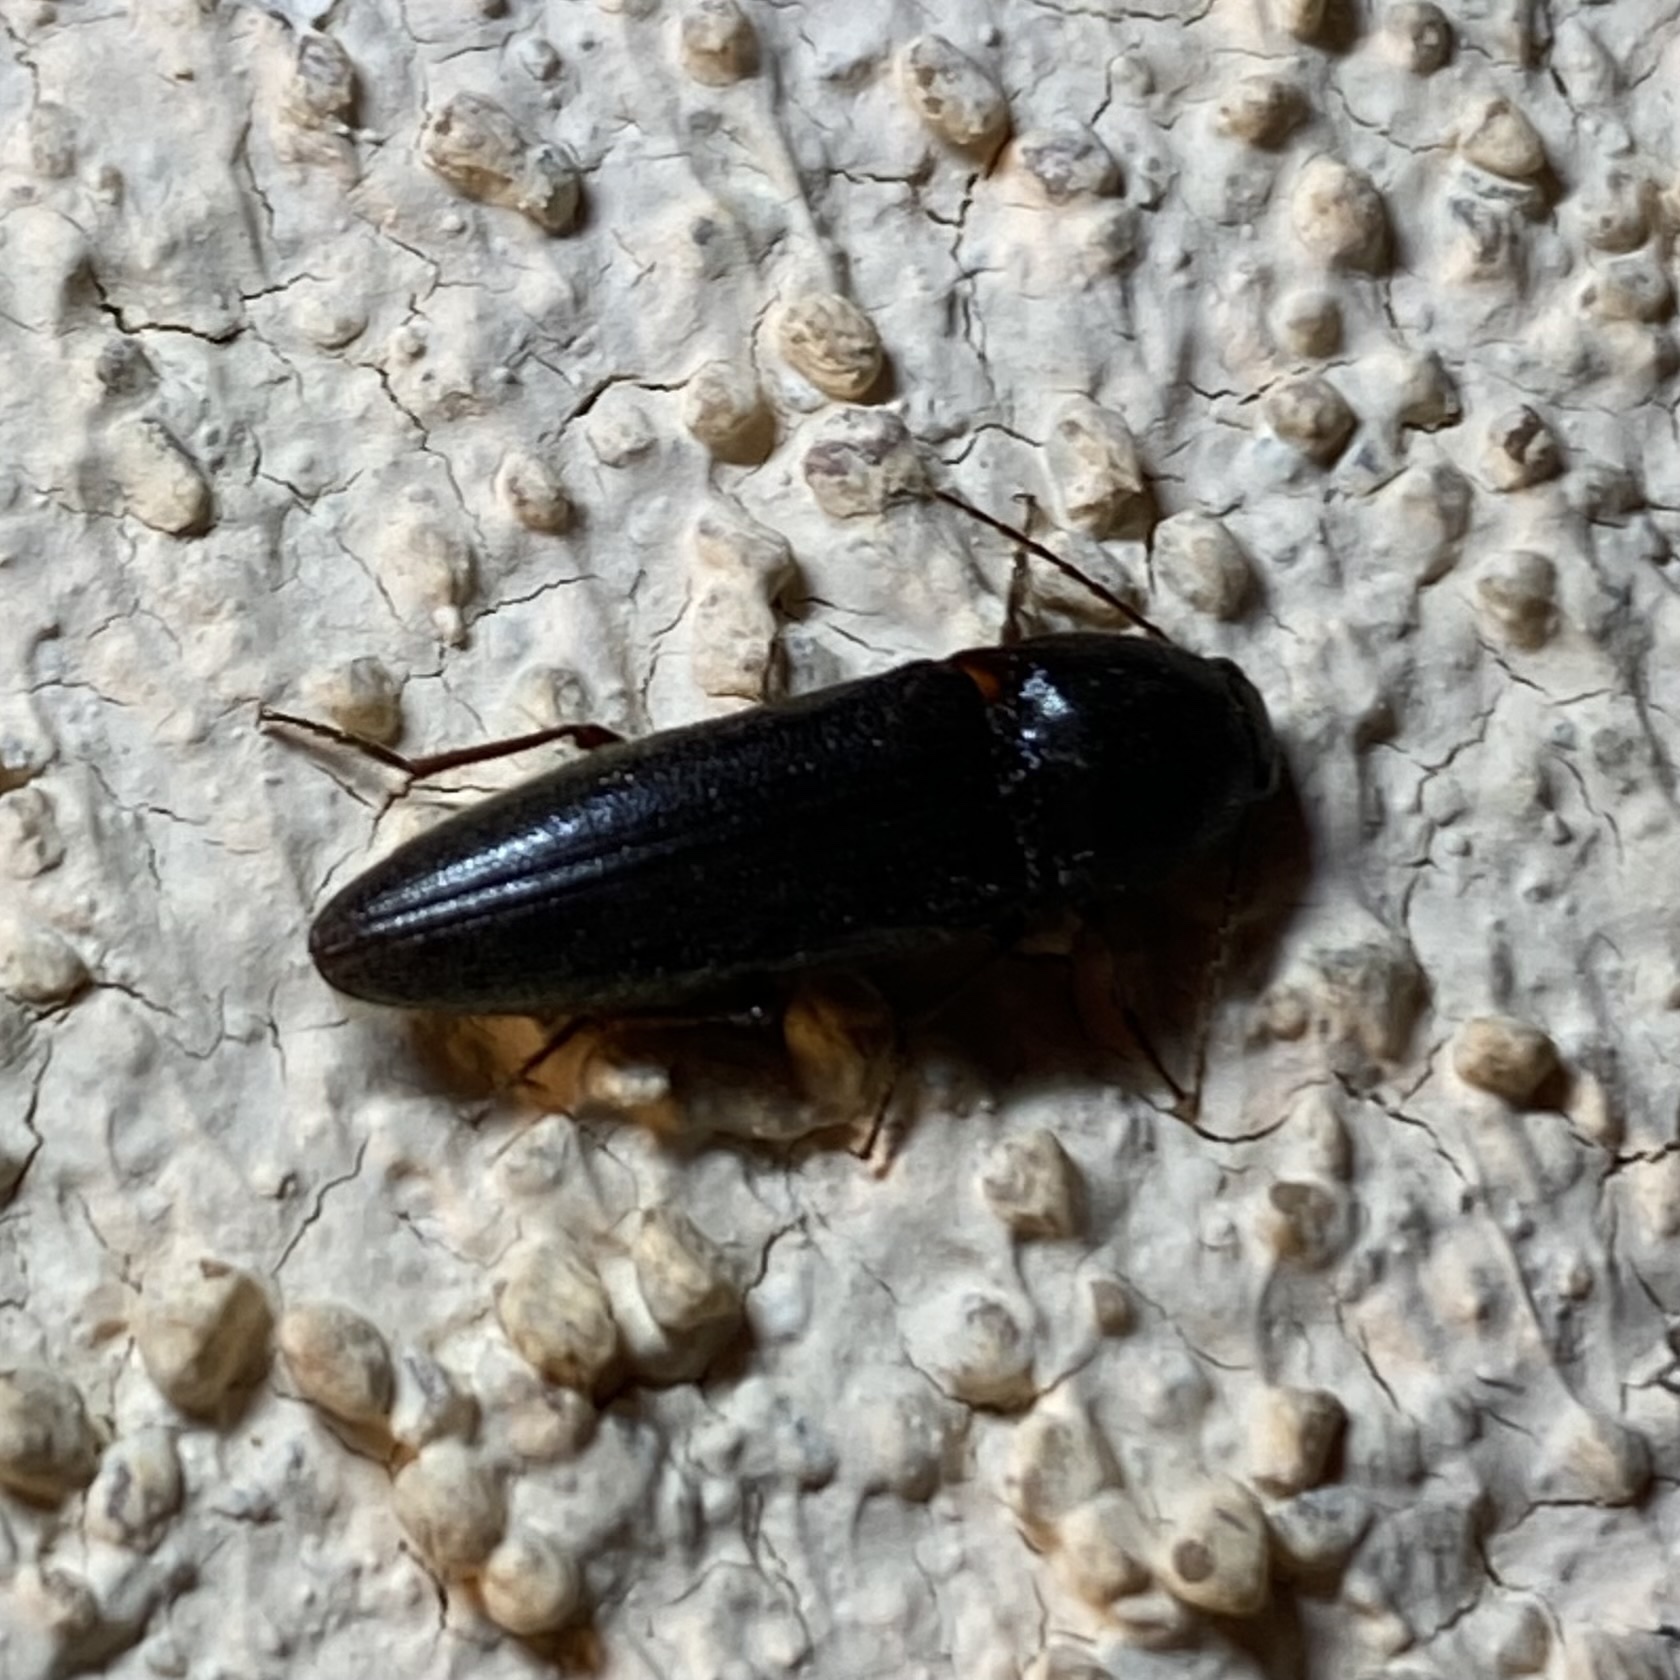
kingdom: Animalia
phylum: Arthropoda
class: Insecta
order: Coleoptera
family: Elateridae
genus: Melanotus
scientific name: Melanotus
